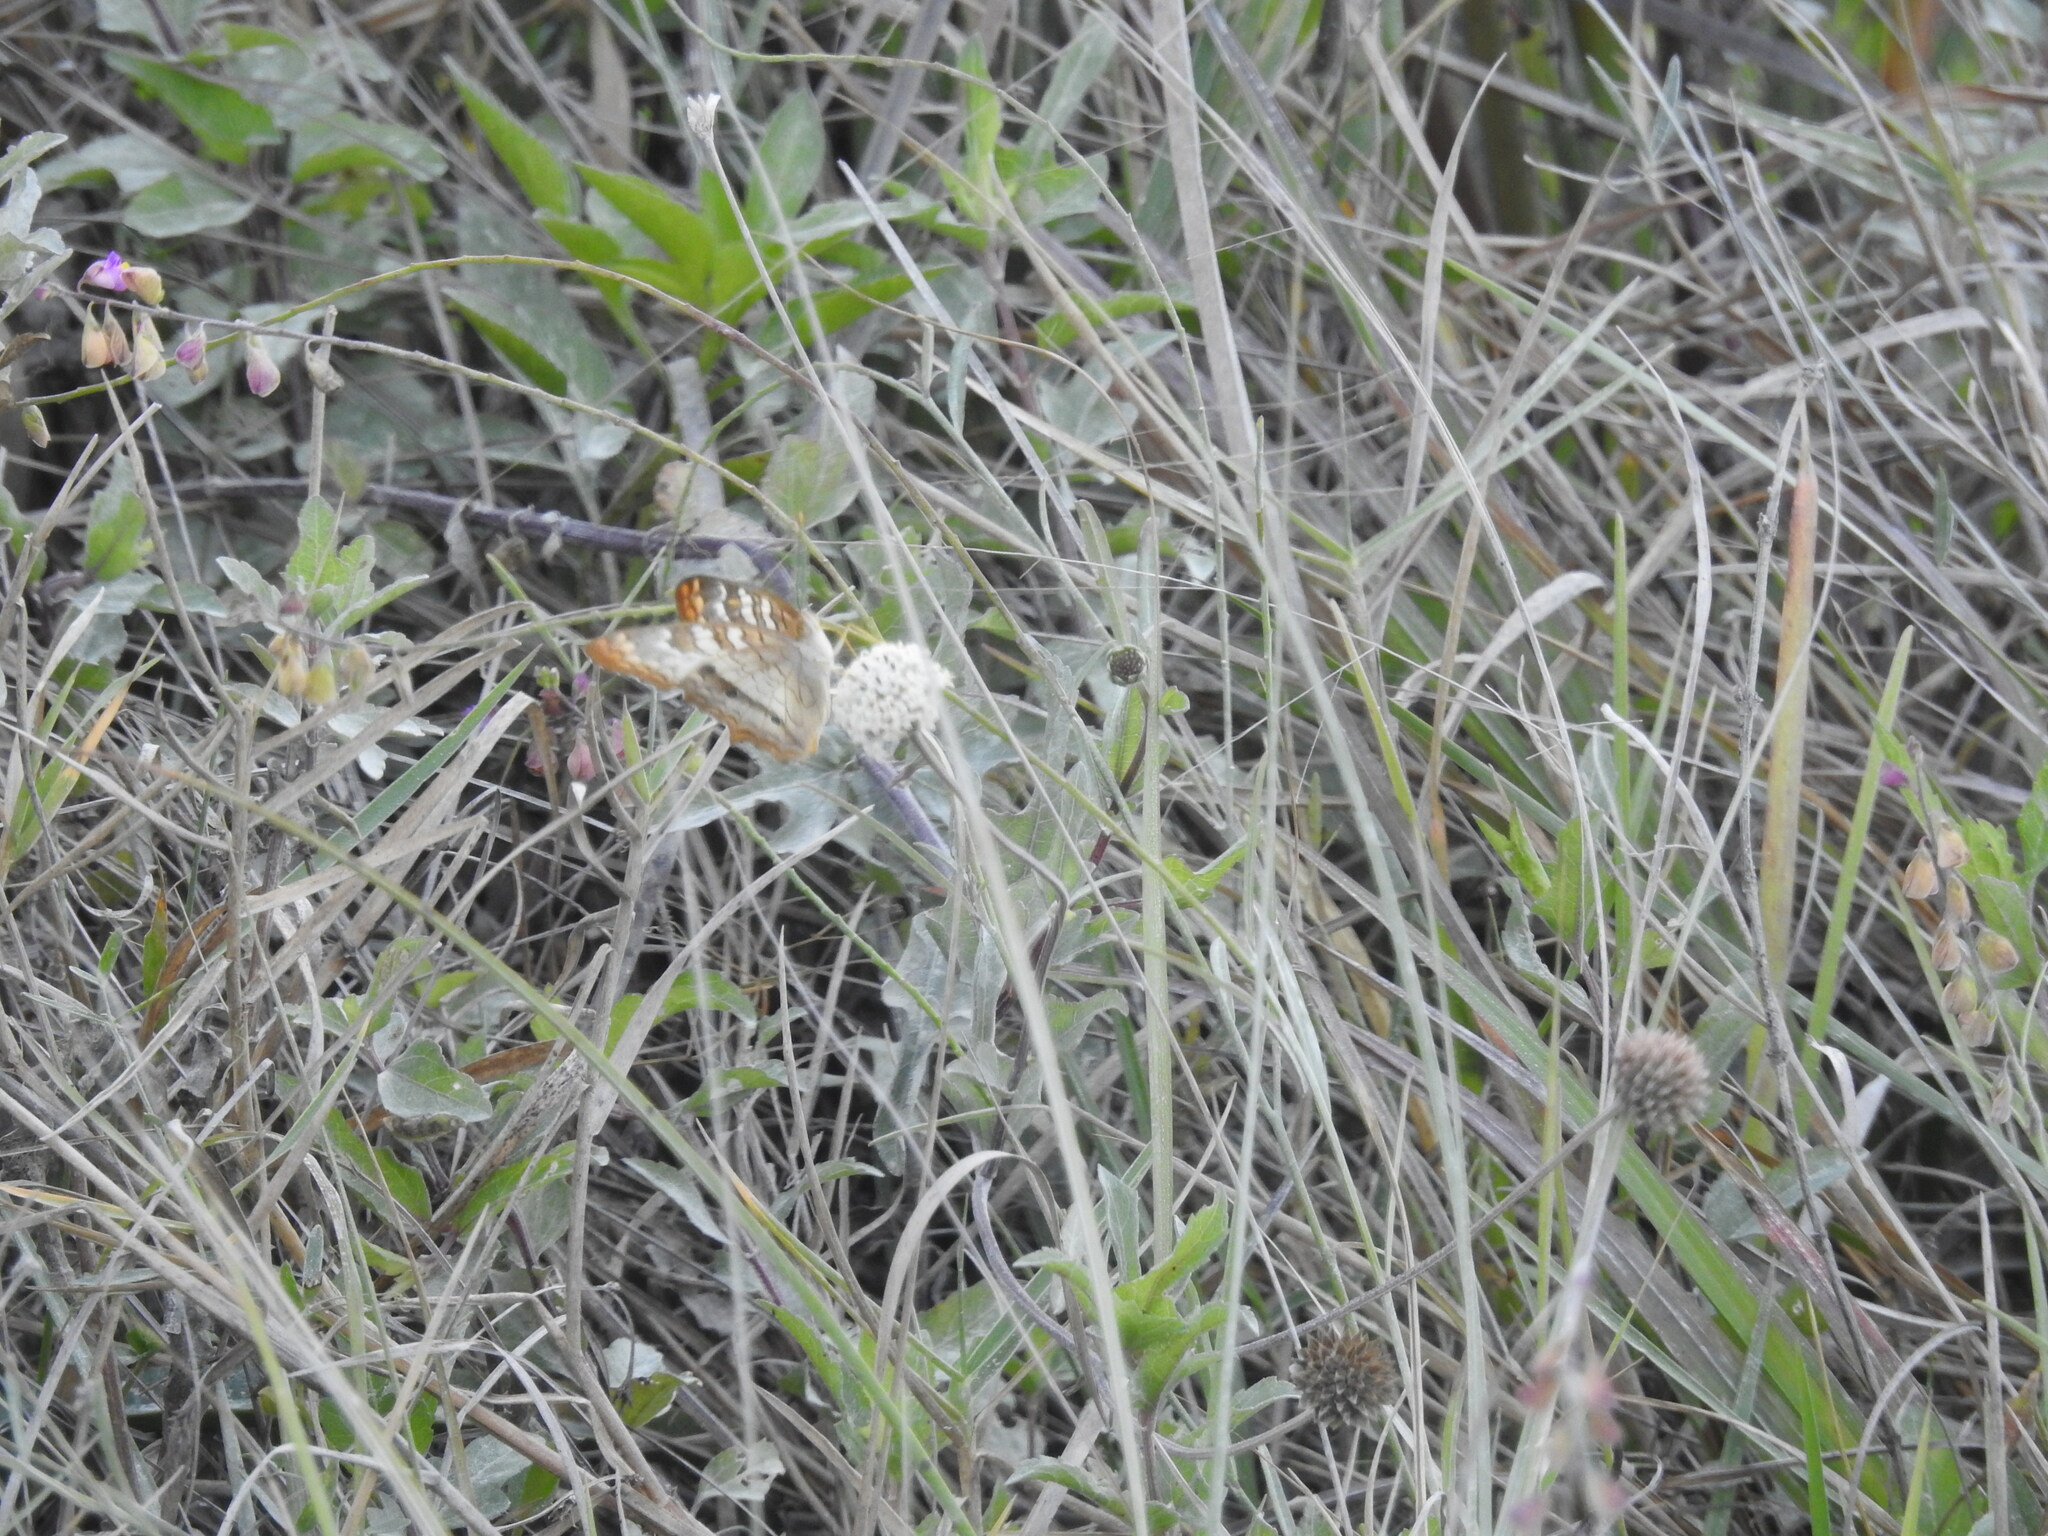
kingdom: Animalia
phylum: Arthropoda
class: Insecta
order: Lepidoptera
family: Nymphalidae
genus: Anartia
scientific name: Anartia jatrophae
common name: White peacock
